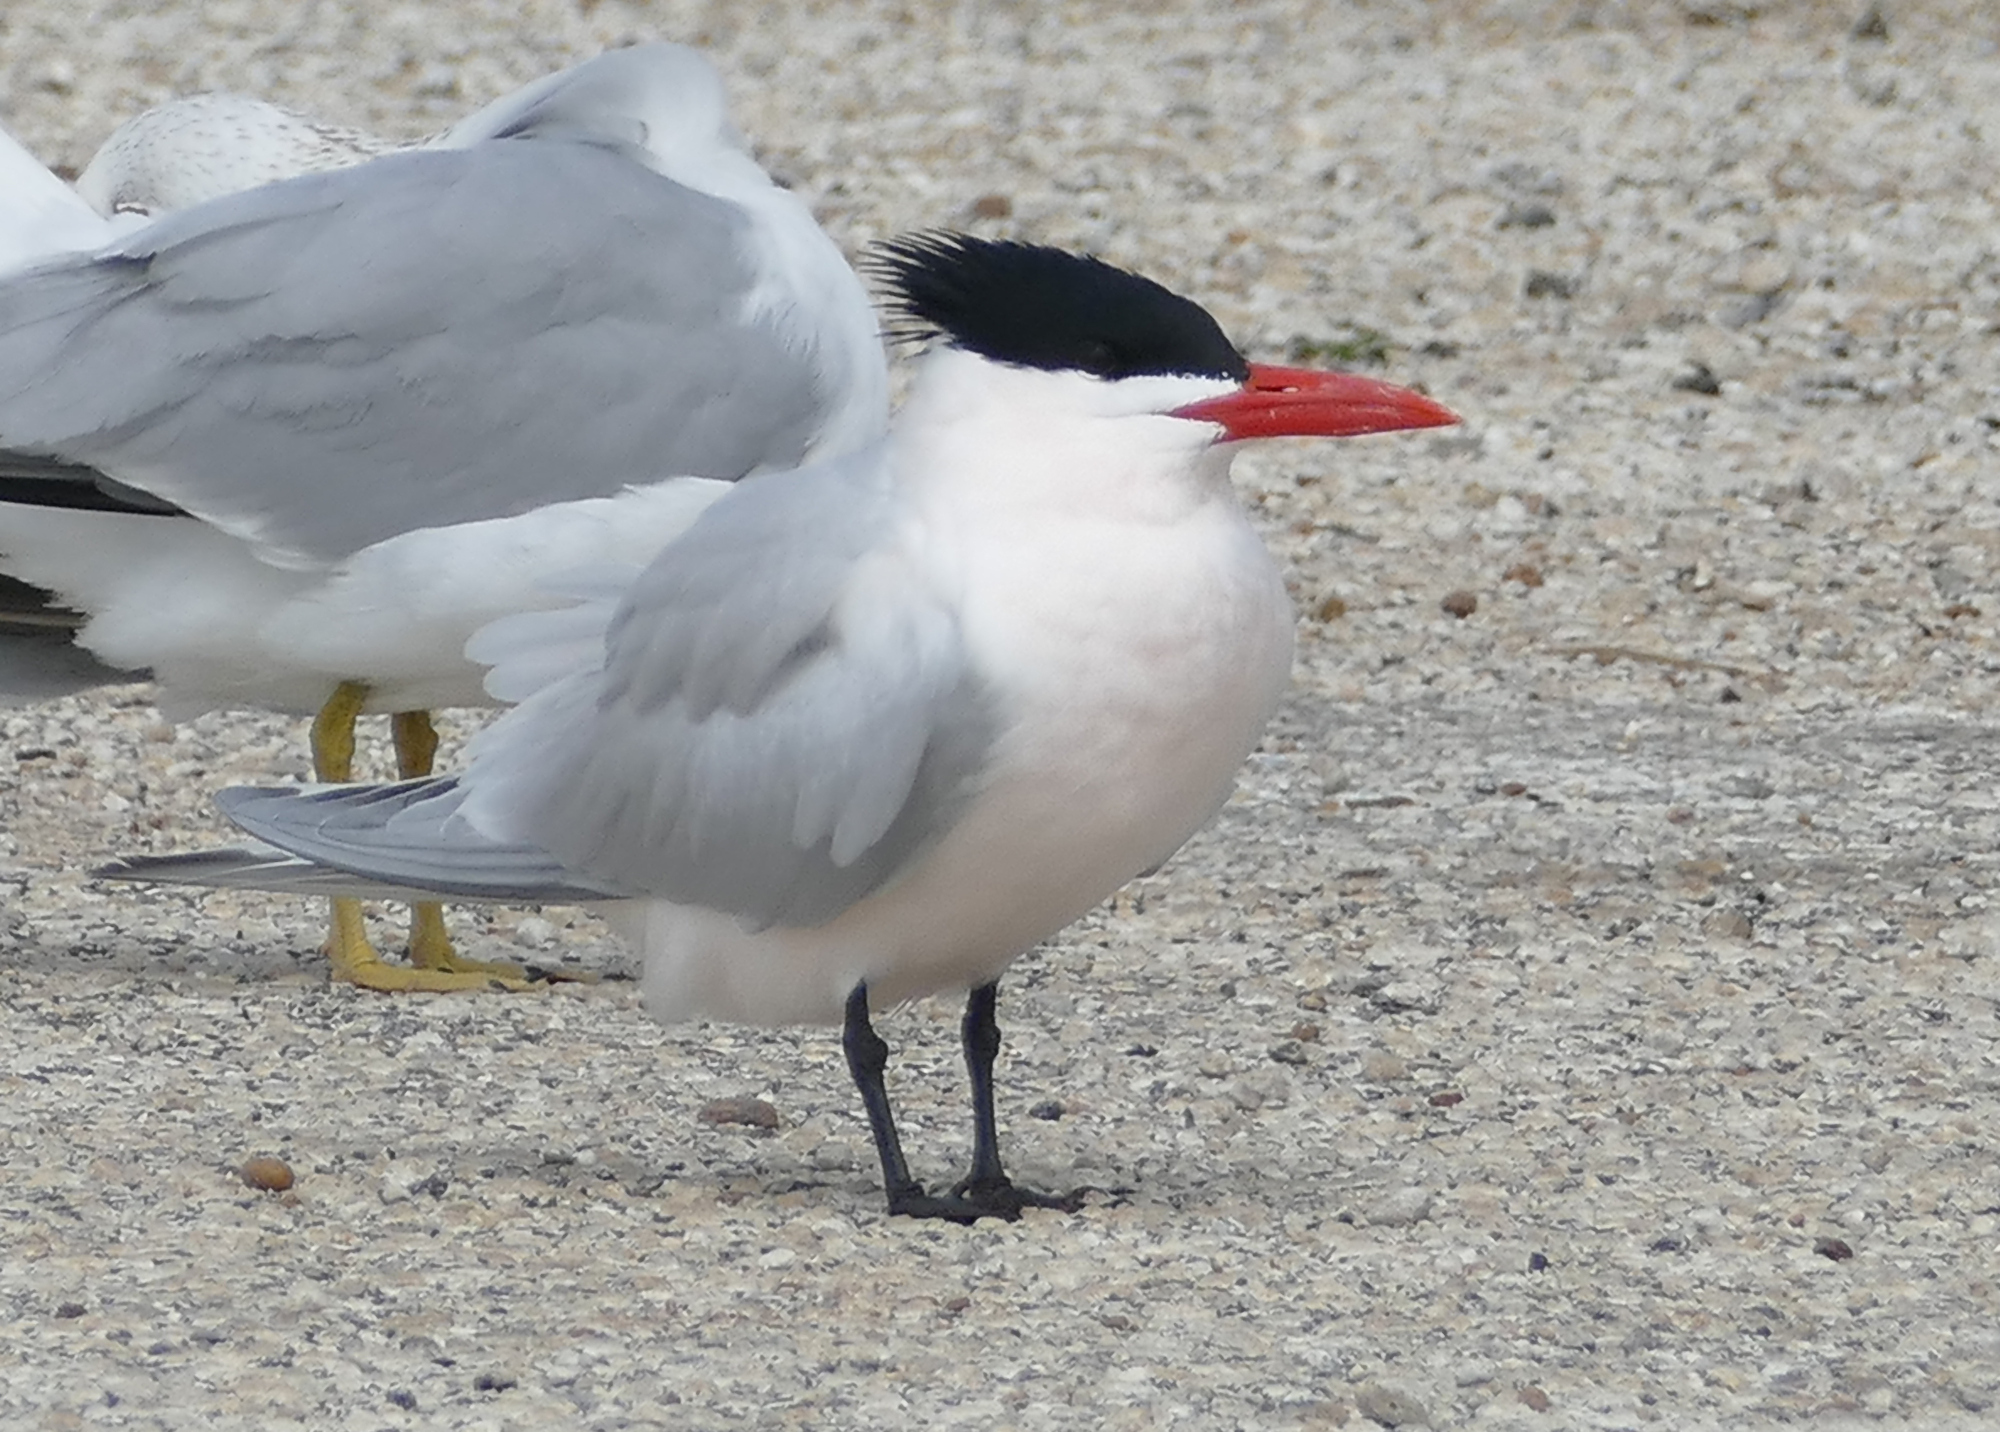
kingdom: Animalia
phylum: Chordata
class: Aves
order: Charadriiformes
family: Laridae
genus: Hydroprogne
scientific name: Hydroprogne caspia
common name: Caspian tern
